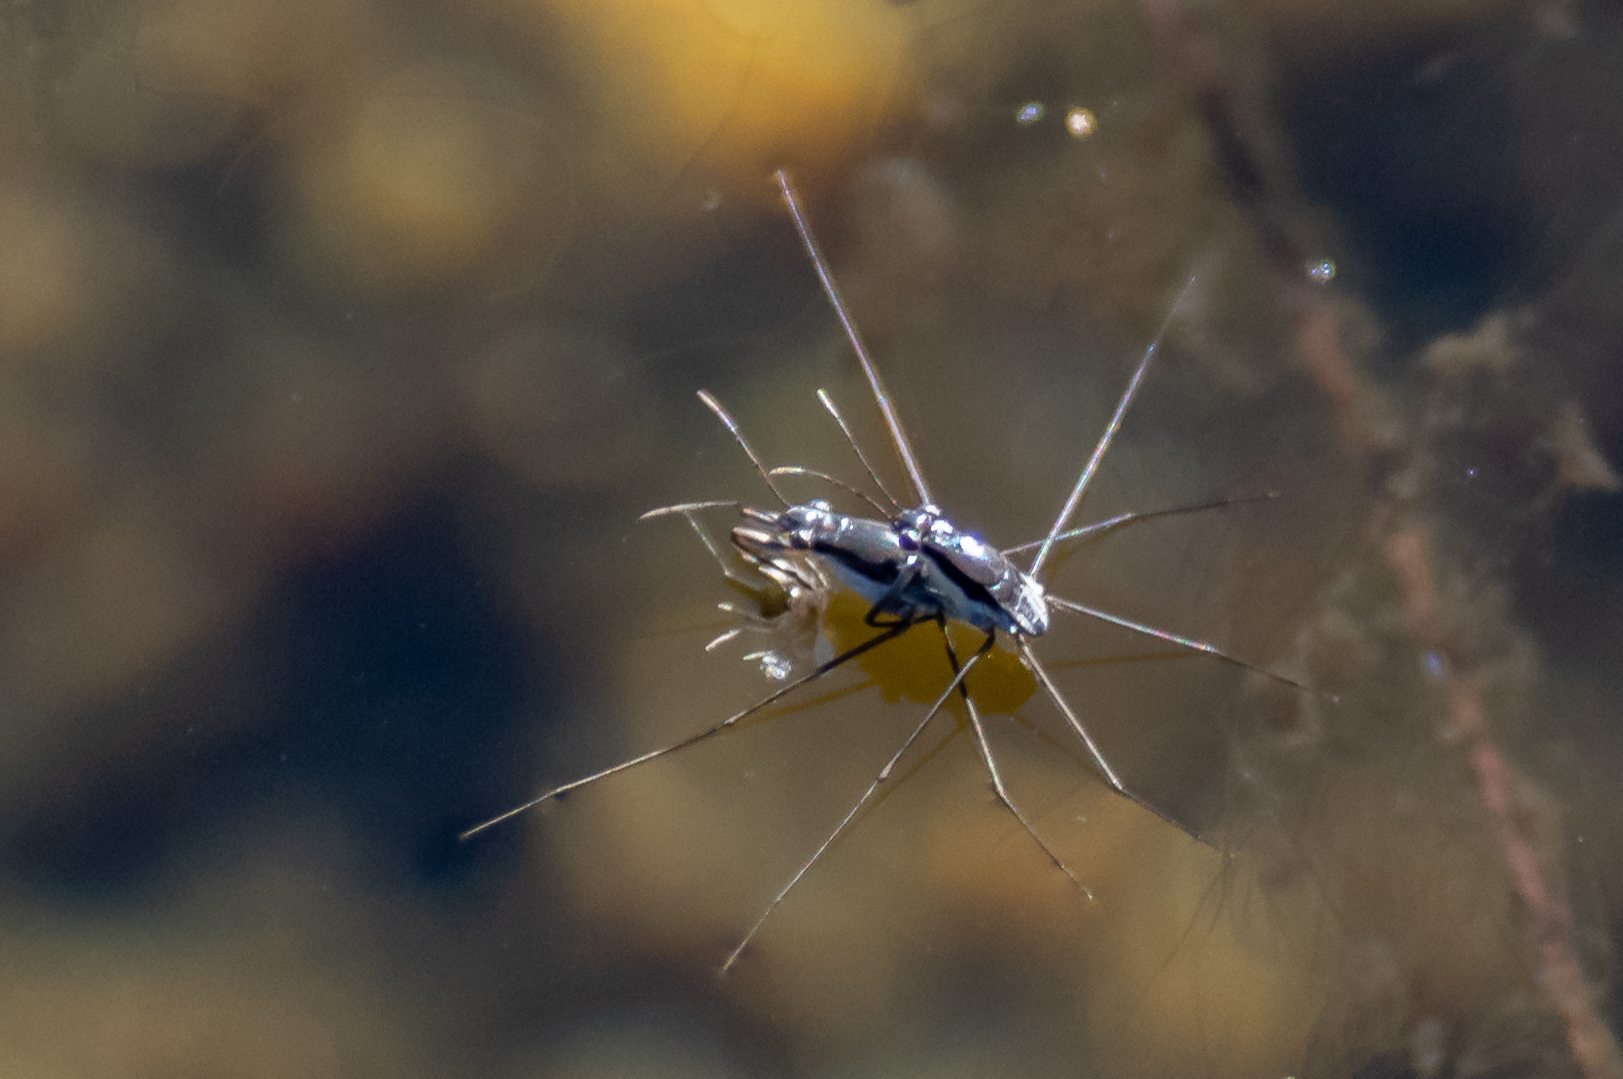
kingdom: Animalia
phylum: Arthropoda
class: Insecta
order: Hemiptera
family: Gerridae
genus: Neogerris
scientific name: Neogerris hesione
